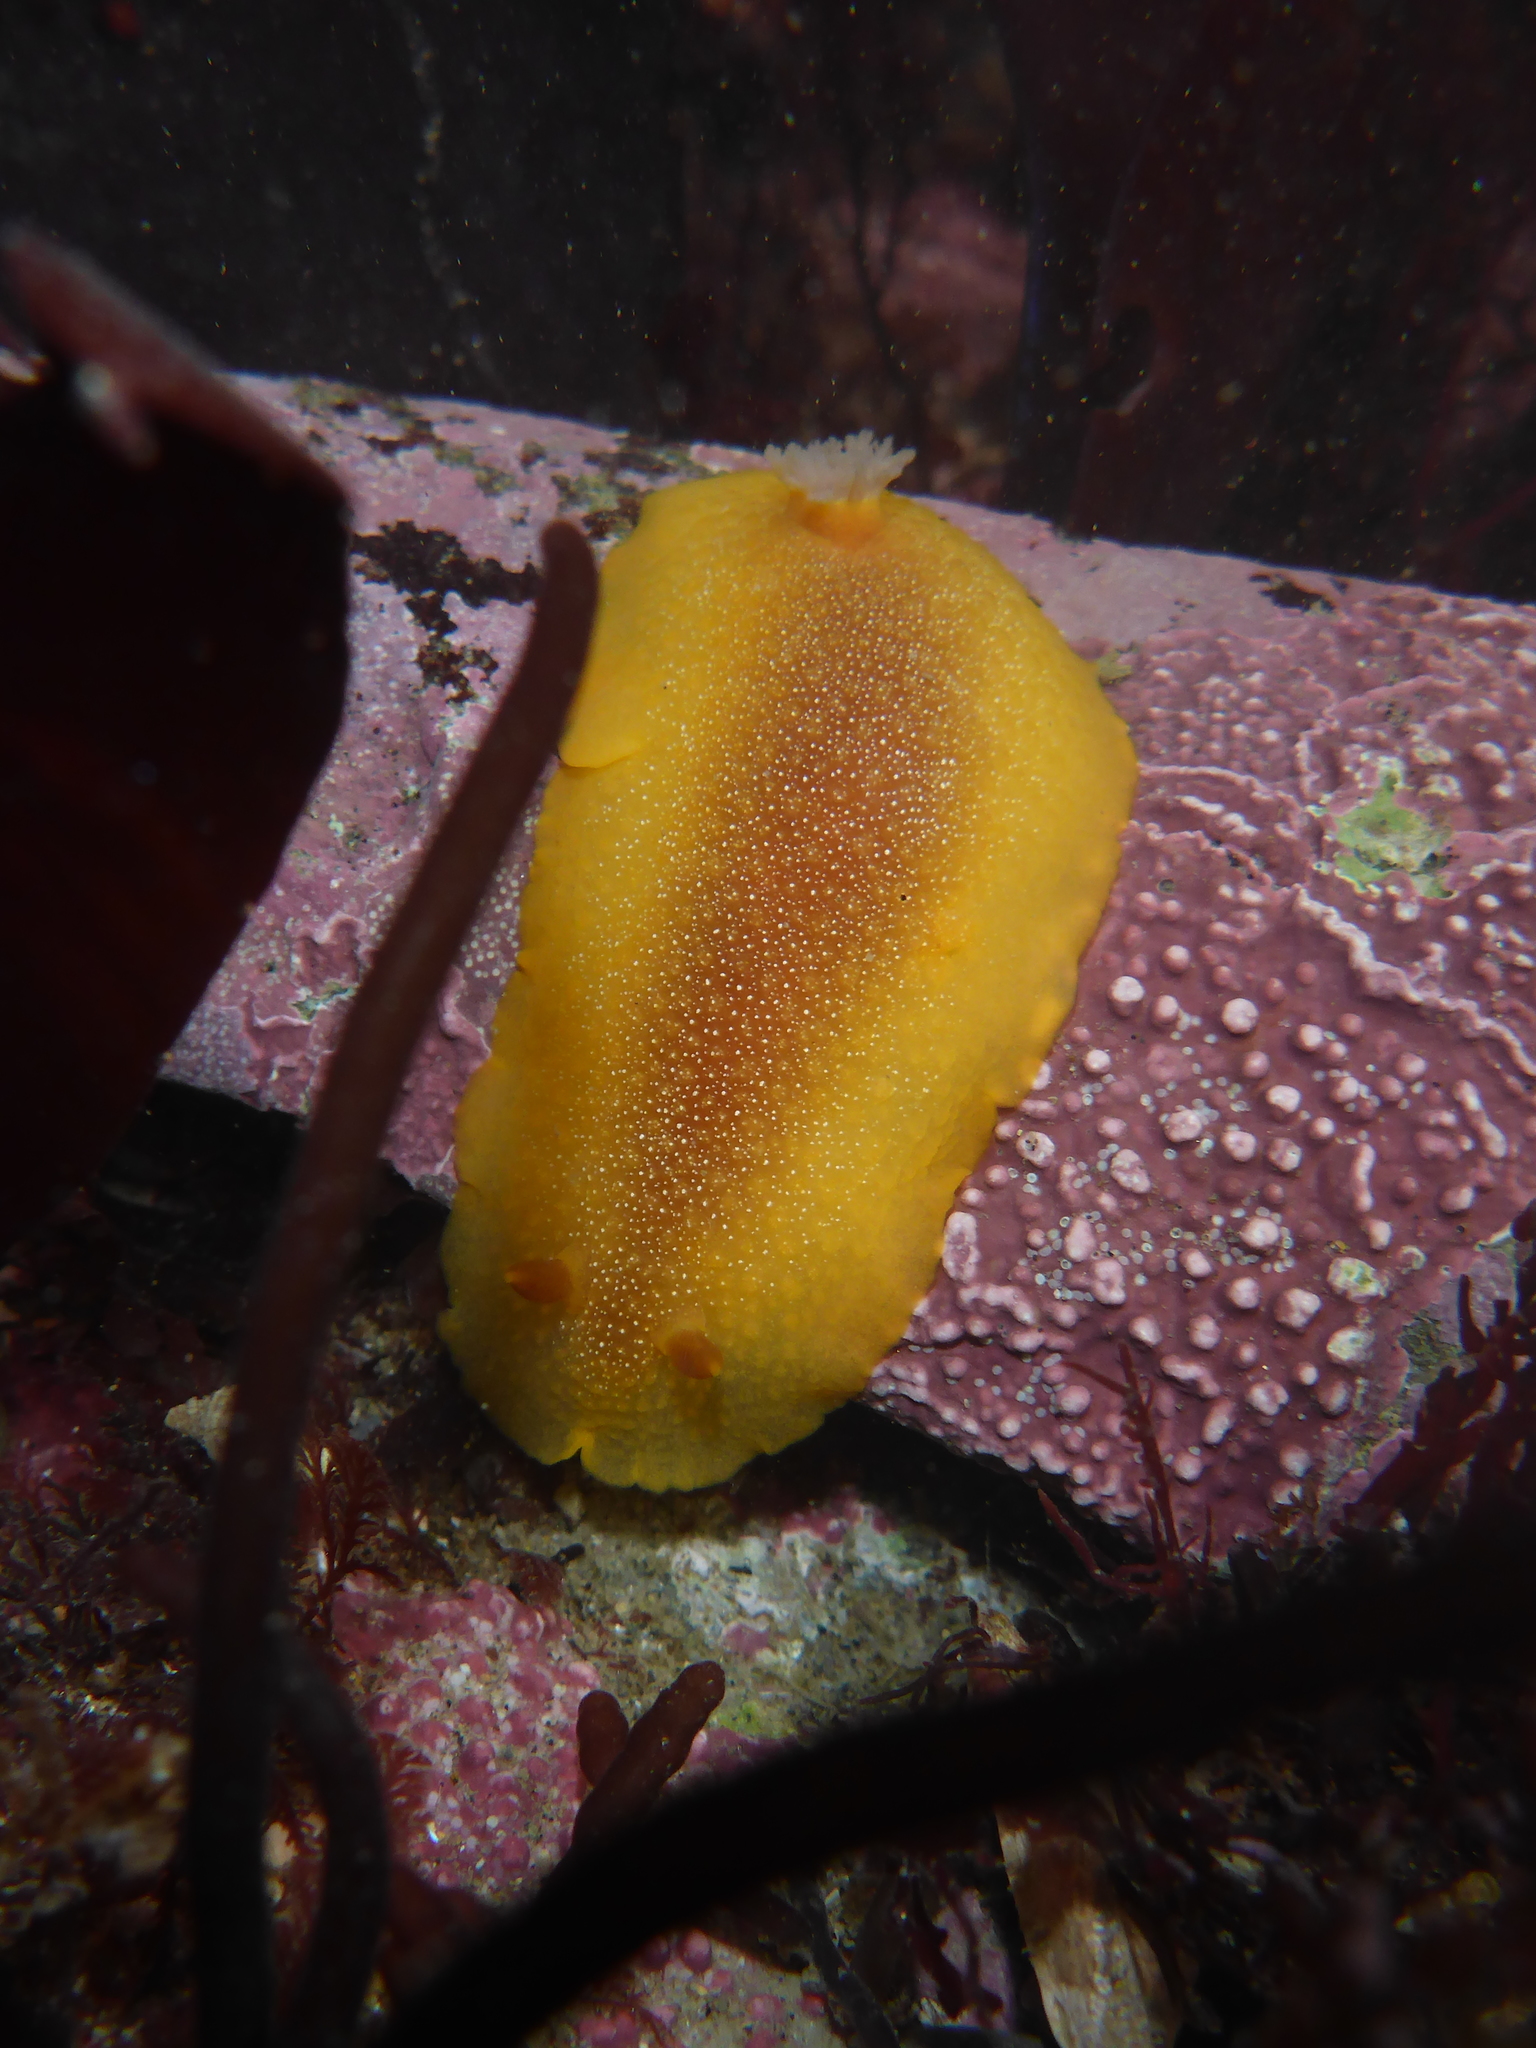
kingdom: Animalia
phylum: Mollusca
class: Gastropoda
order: Nudibranchia
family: Dendrodorididae
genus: Doriopsilla
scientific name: Doriopsilla albopunctata
